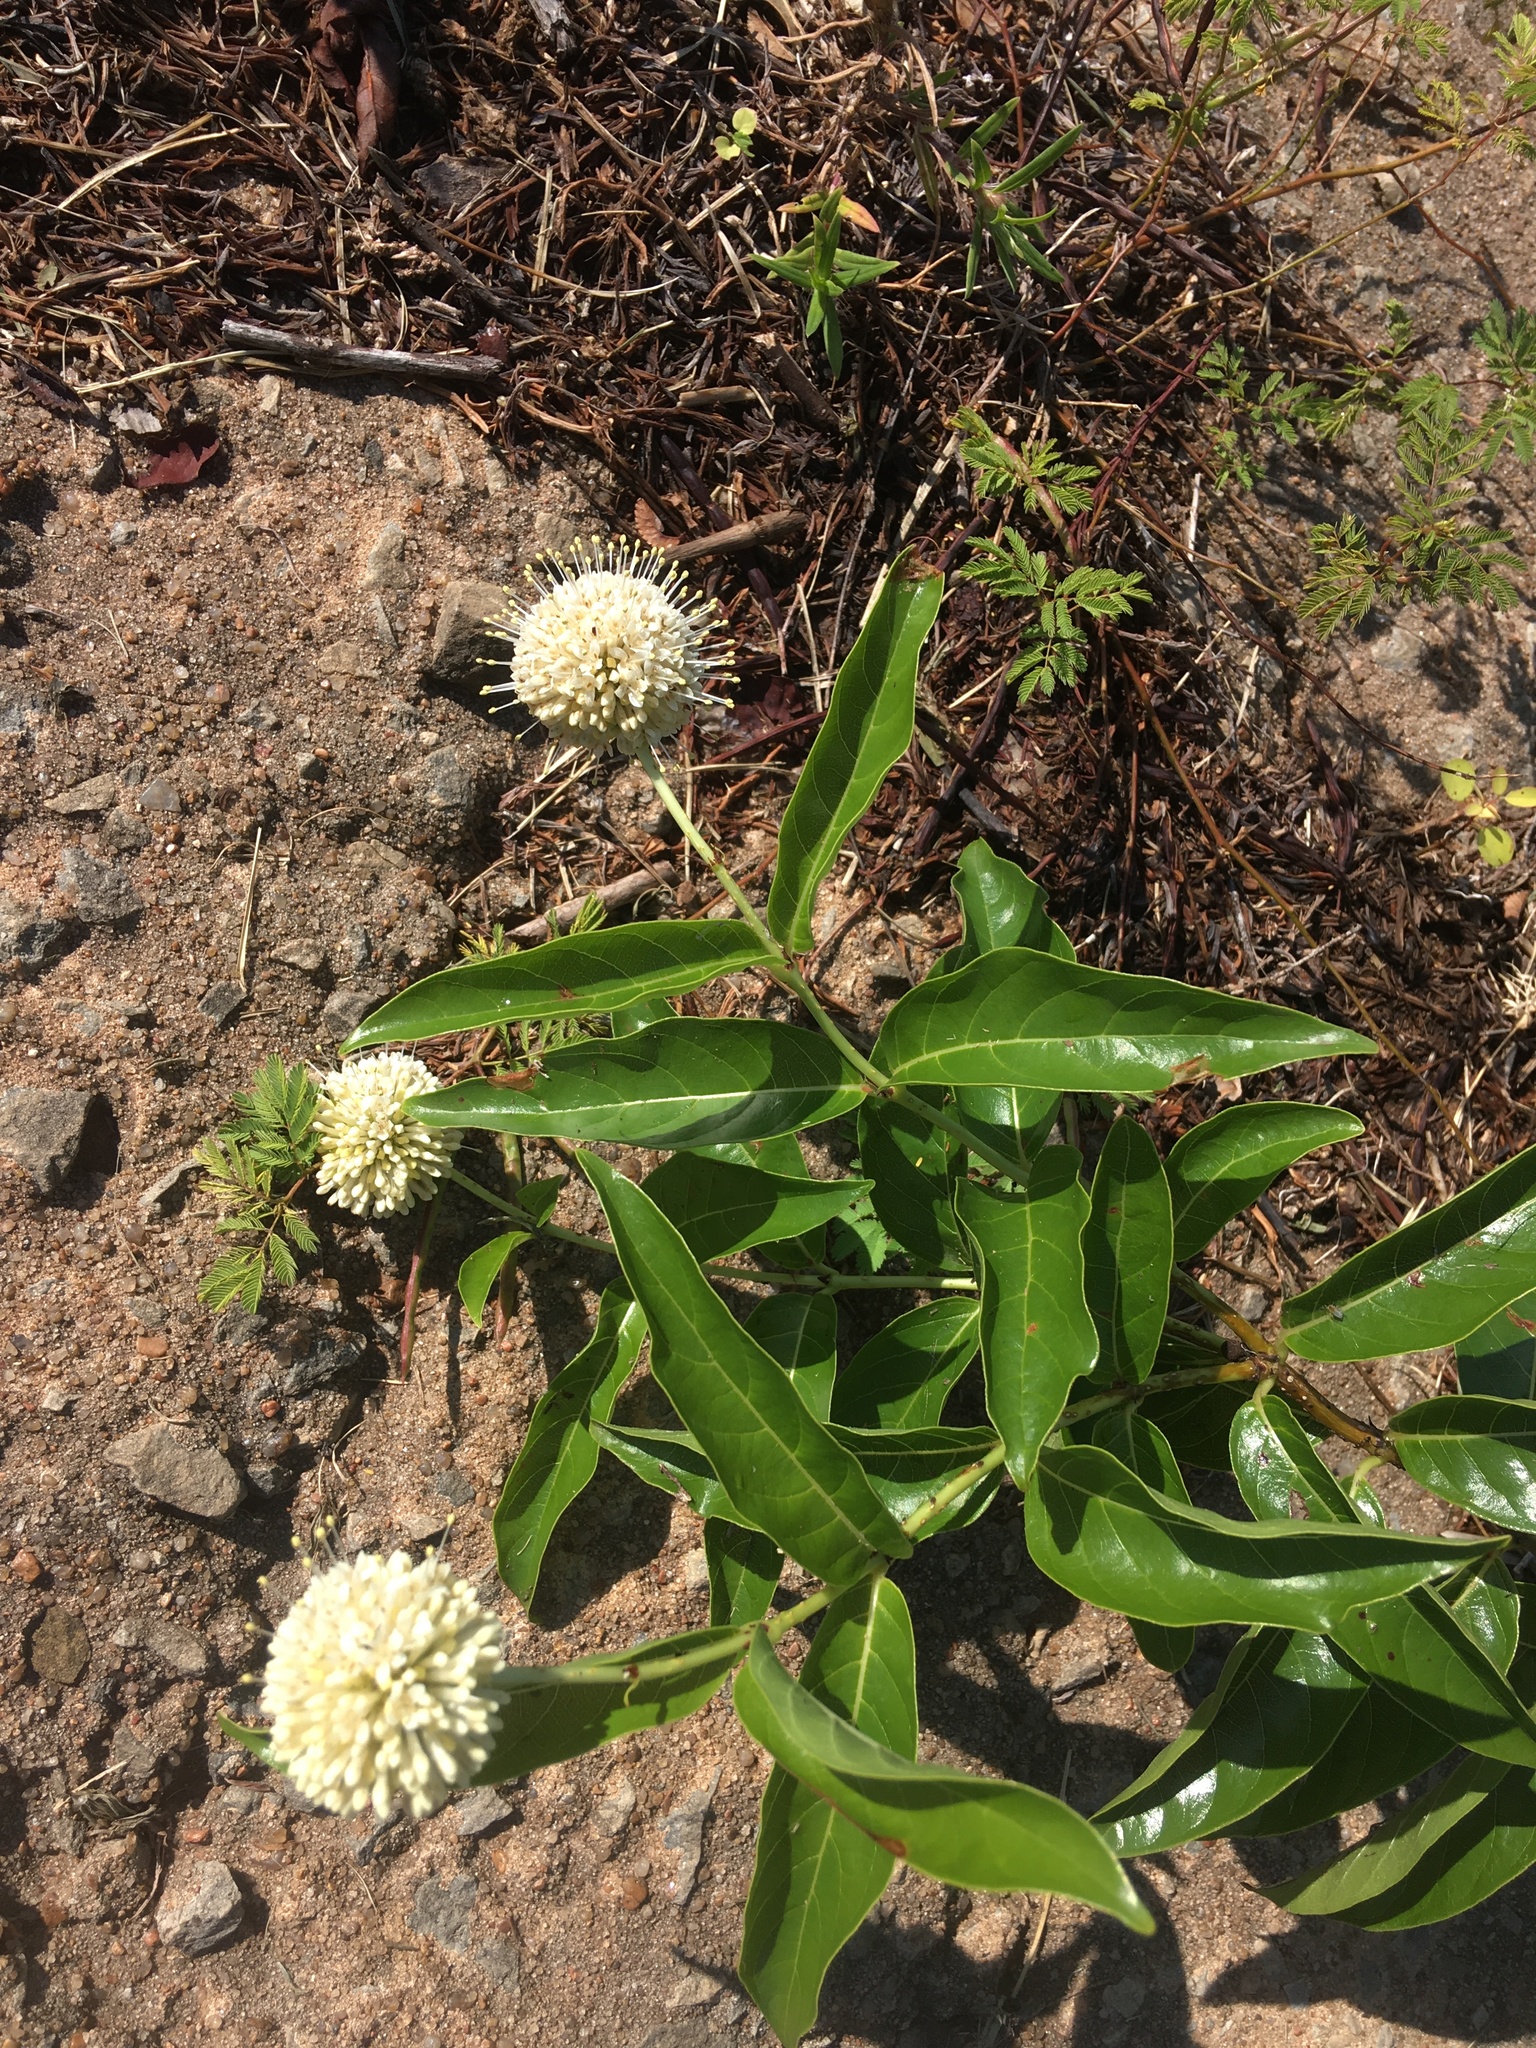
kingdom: Plantae
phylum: Tracheophyta
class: Magnoliopsida
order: Gentianales
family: Rubiaceae
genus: Cephalanthus
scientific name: Cephalanthus occidentalis
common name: Button-willow
